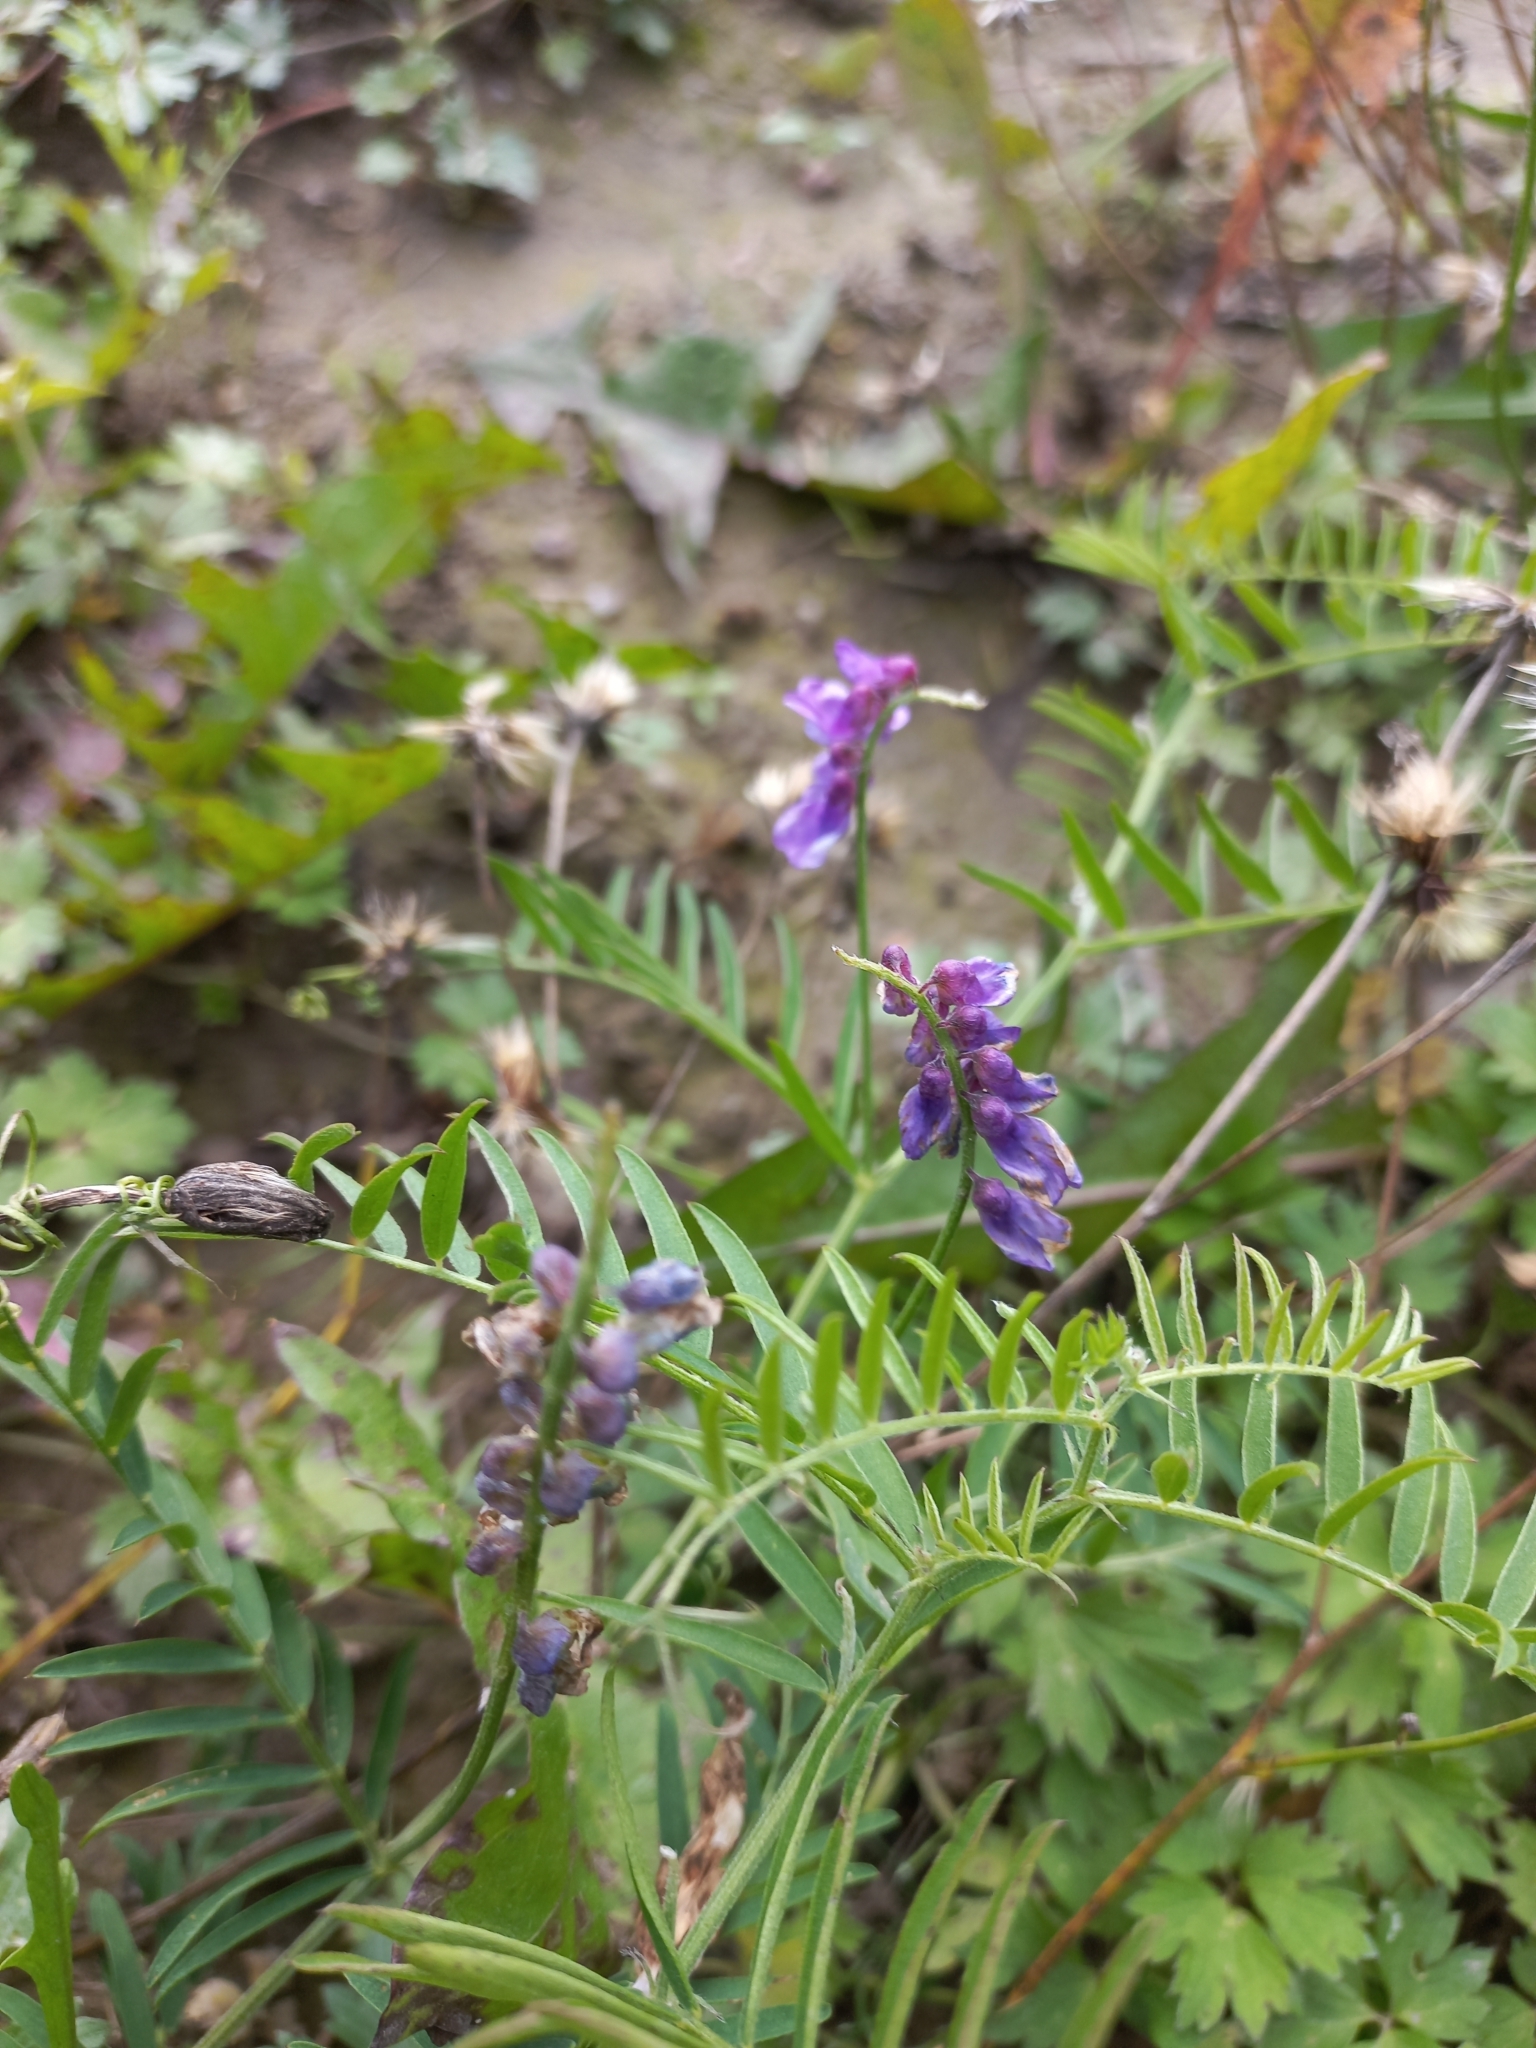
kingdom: Plantae
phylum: Tracheophyta
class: Magnoliopsida
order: Fabales
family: Fabaceae
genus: Vicia
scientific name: Vicia cracca
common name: Bird vetch
